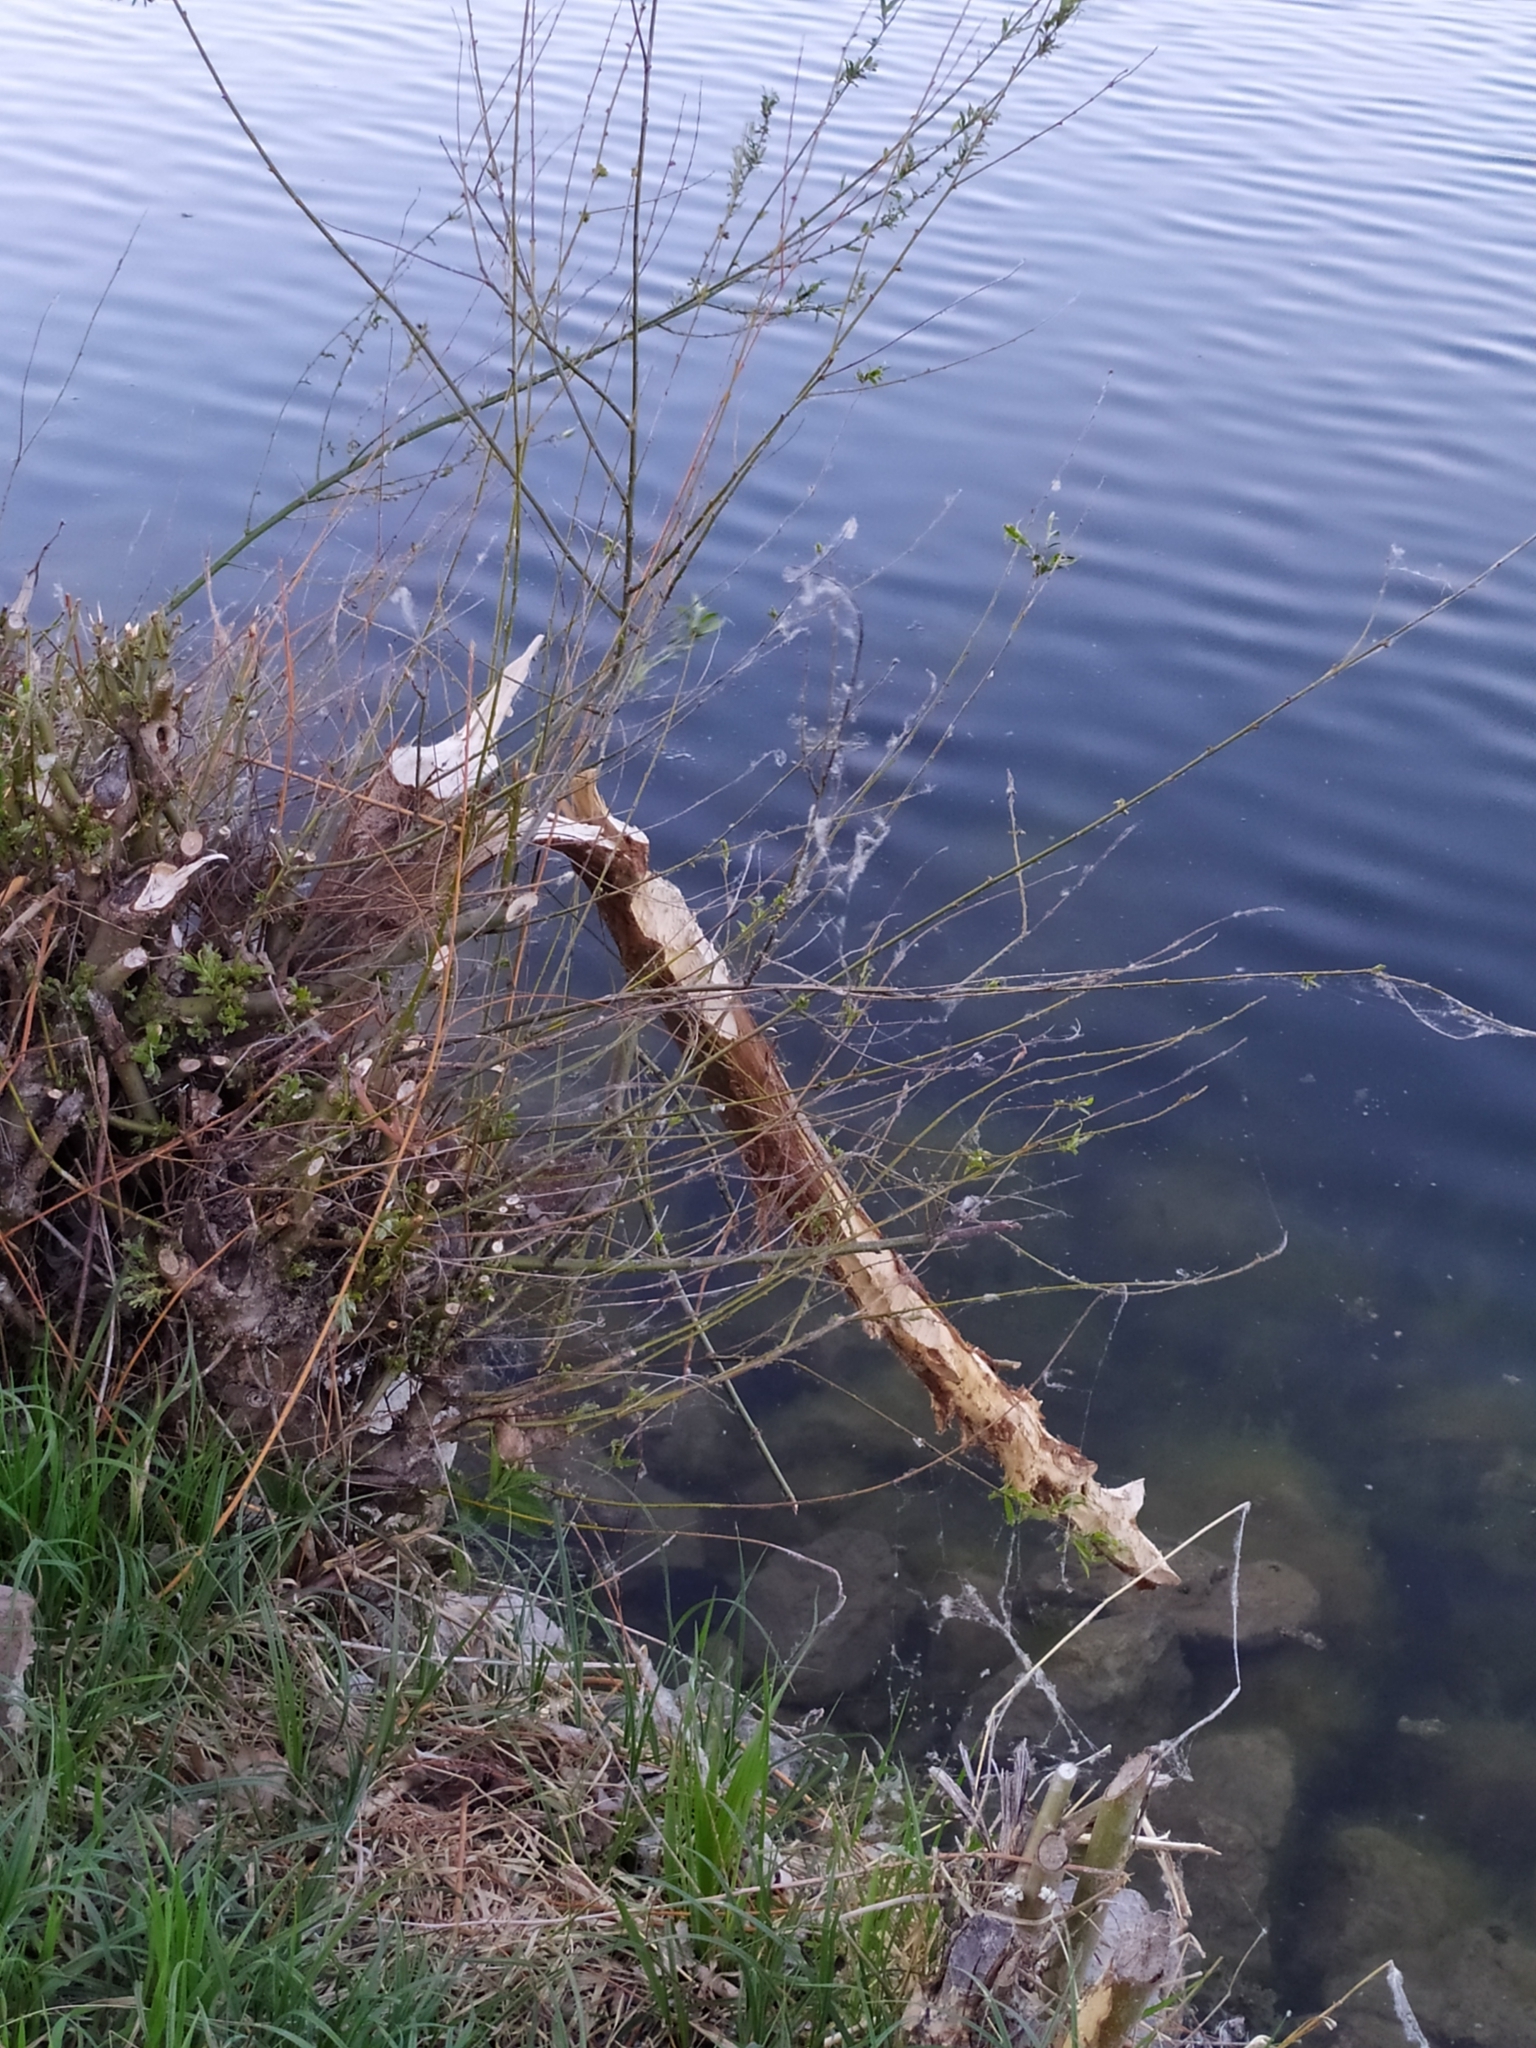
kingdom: Animalia
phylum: Chordata
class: Mammalia
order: Rodentia
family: Castoridae
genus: Castor
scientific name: Castor fiber
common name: Eurasian beaver
